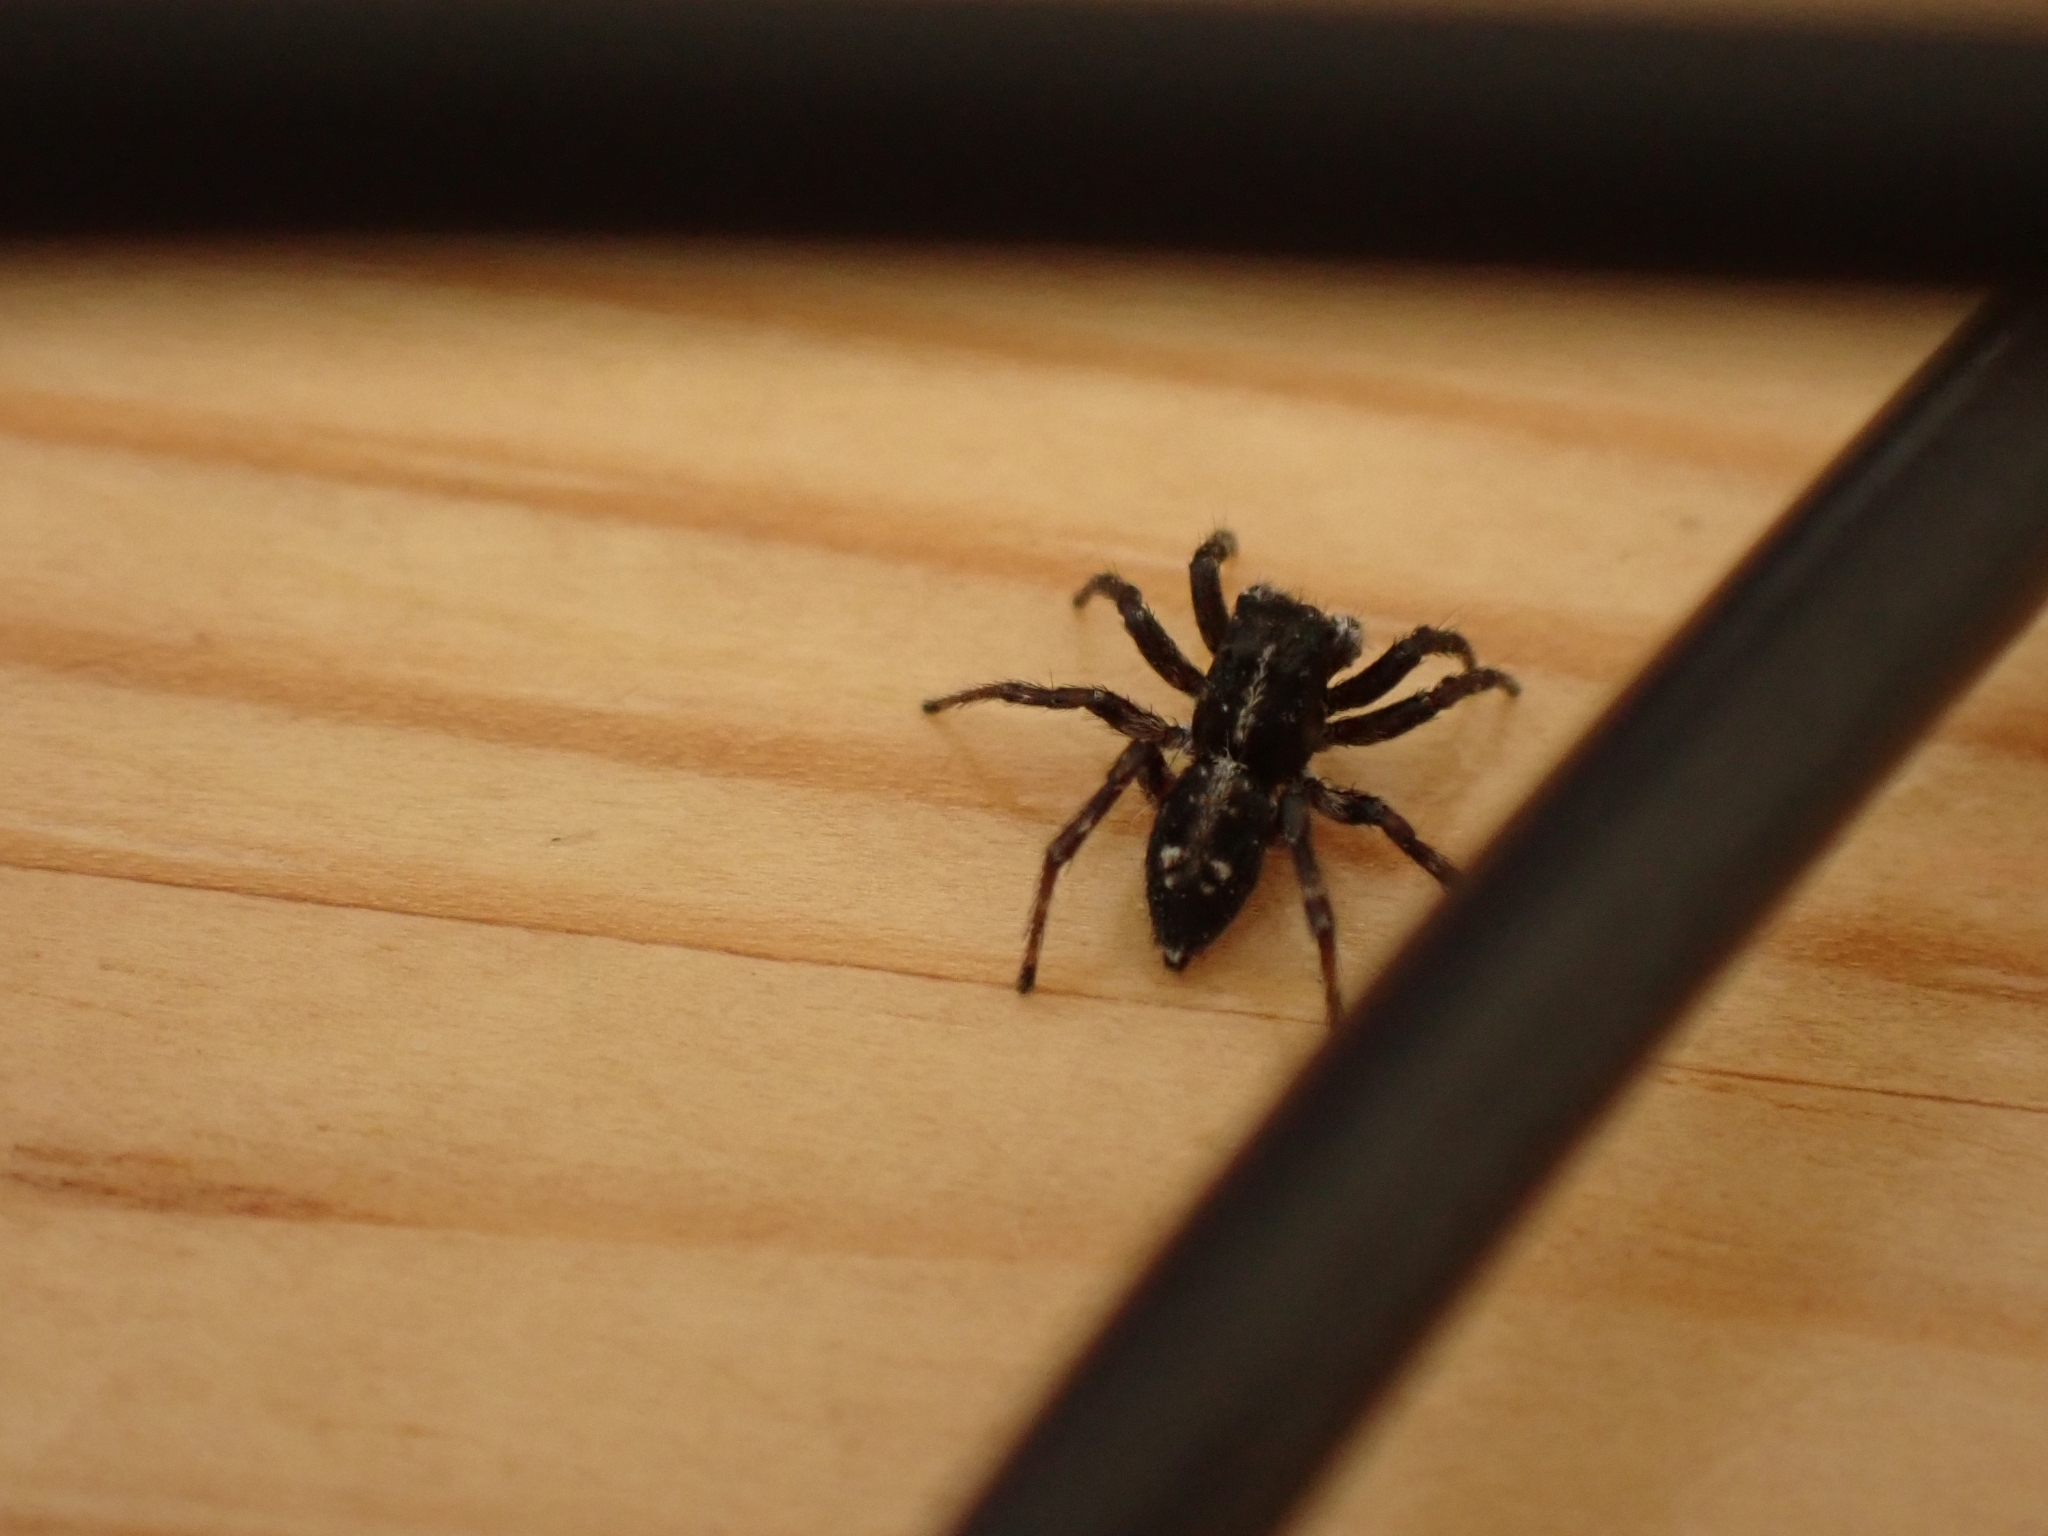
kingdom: Animalia
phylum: Arthropoda
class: Arachnida
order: Araneae
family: Salticidae
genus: Attulus
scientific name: Attulus terebratus
